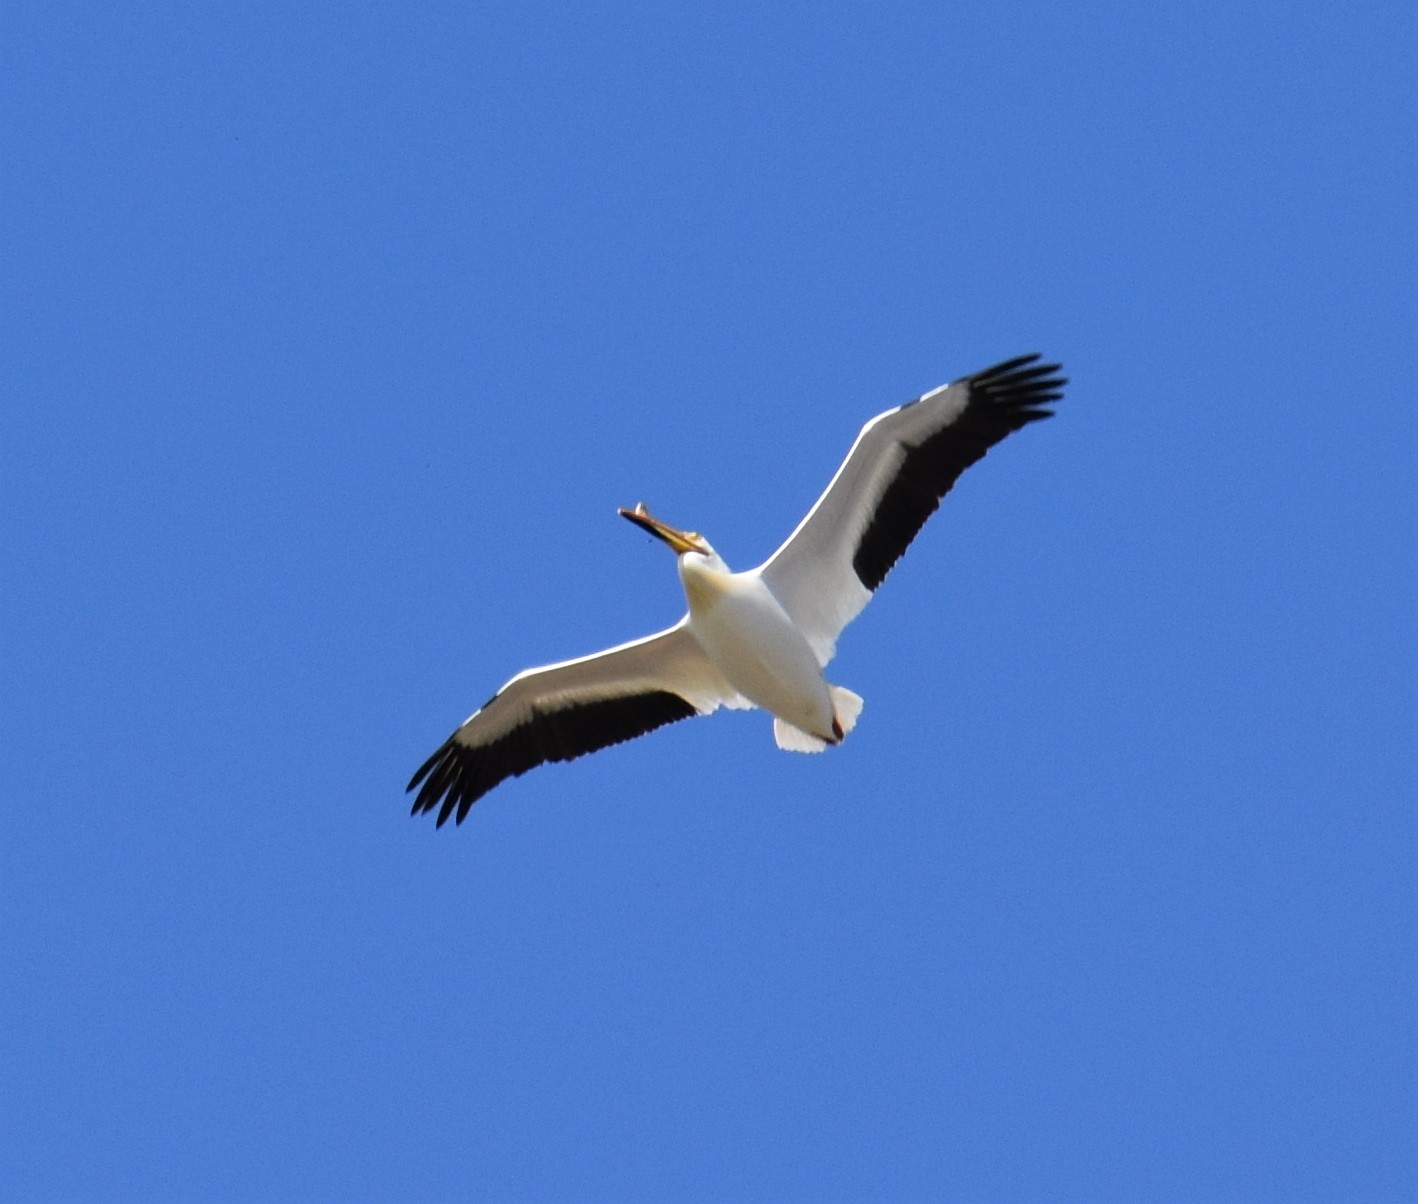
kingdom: Animalia
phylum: Chordata
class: Aves
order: Pelecaniformes
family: Pelecanidae
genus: Pelecanus
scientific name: Pelecanus erythrorhynchos
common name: American white pelican
